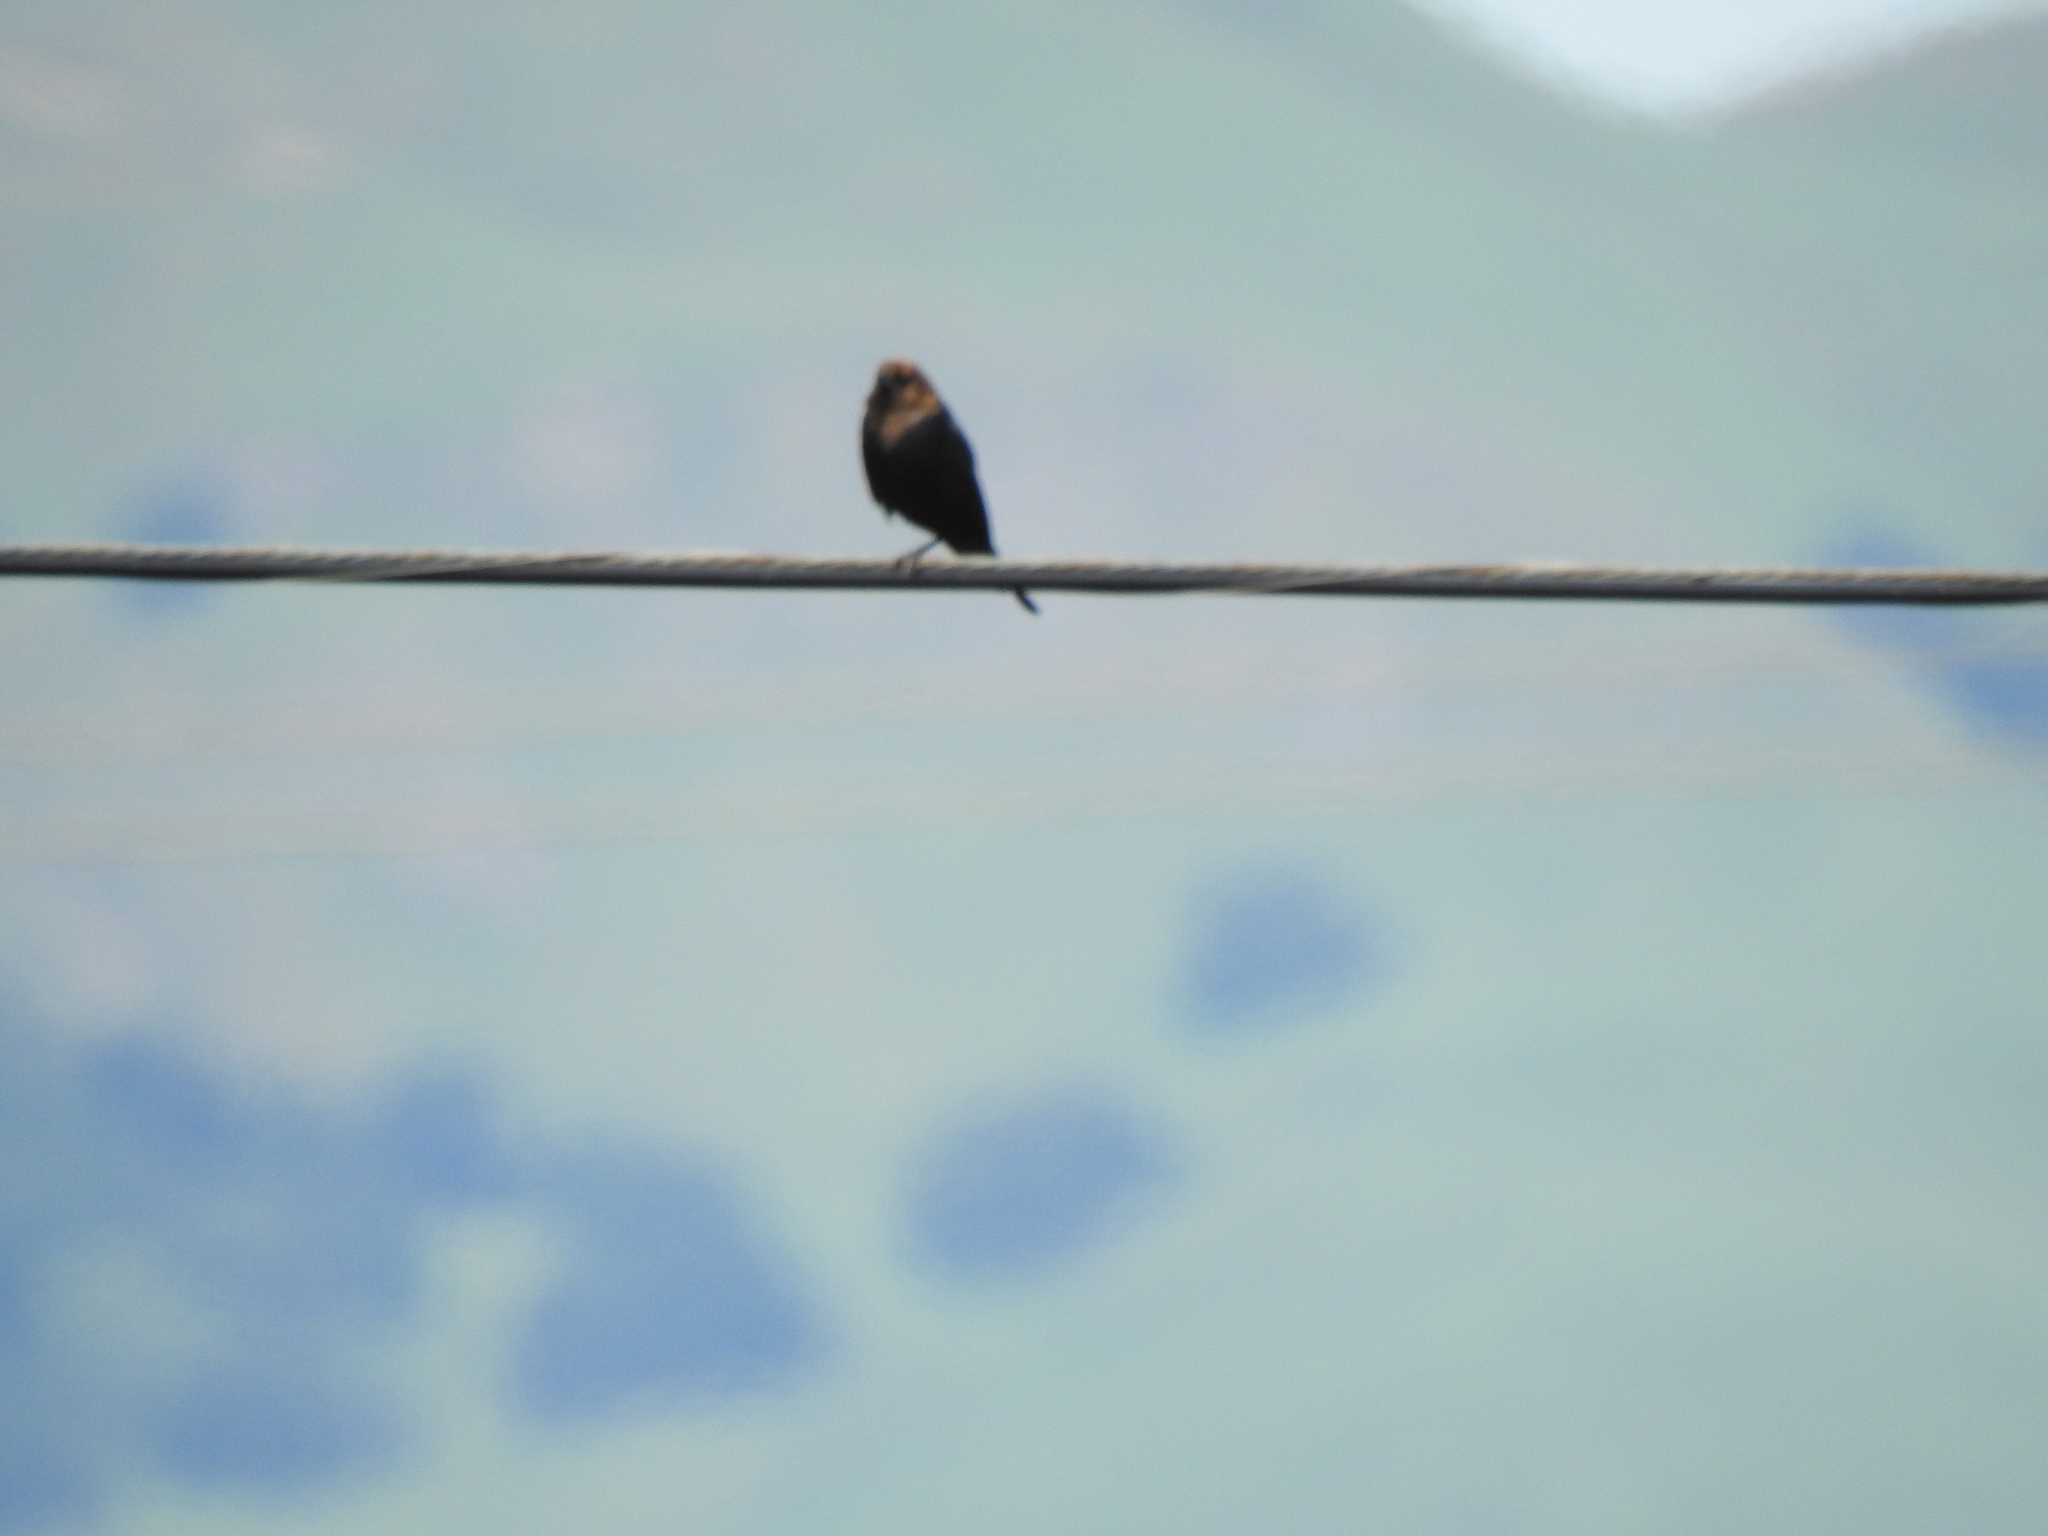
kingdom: Animalia
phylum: Chordata
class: Aves
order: Passeriformes
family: Icteridae
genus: Molothrus
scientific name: Molothrus ater
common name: Brown-headed cowbird
